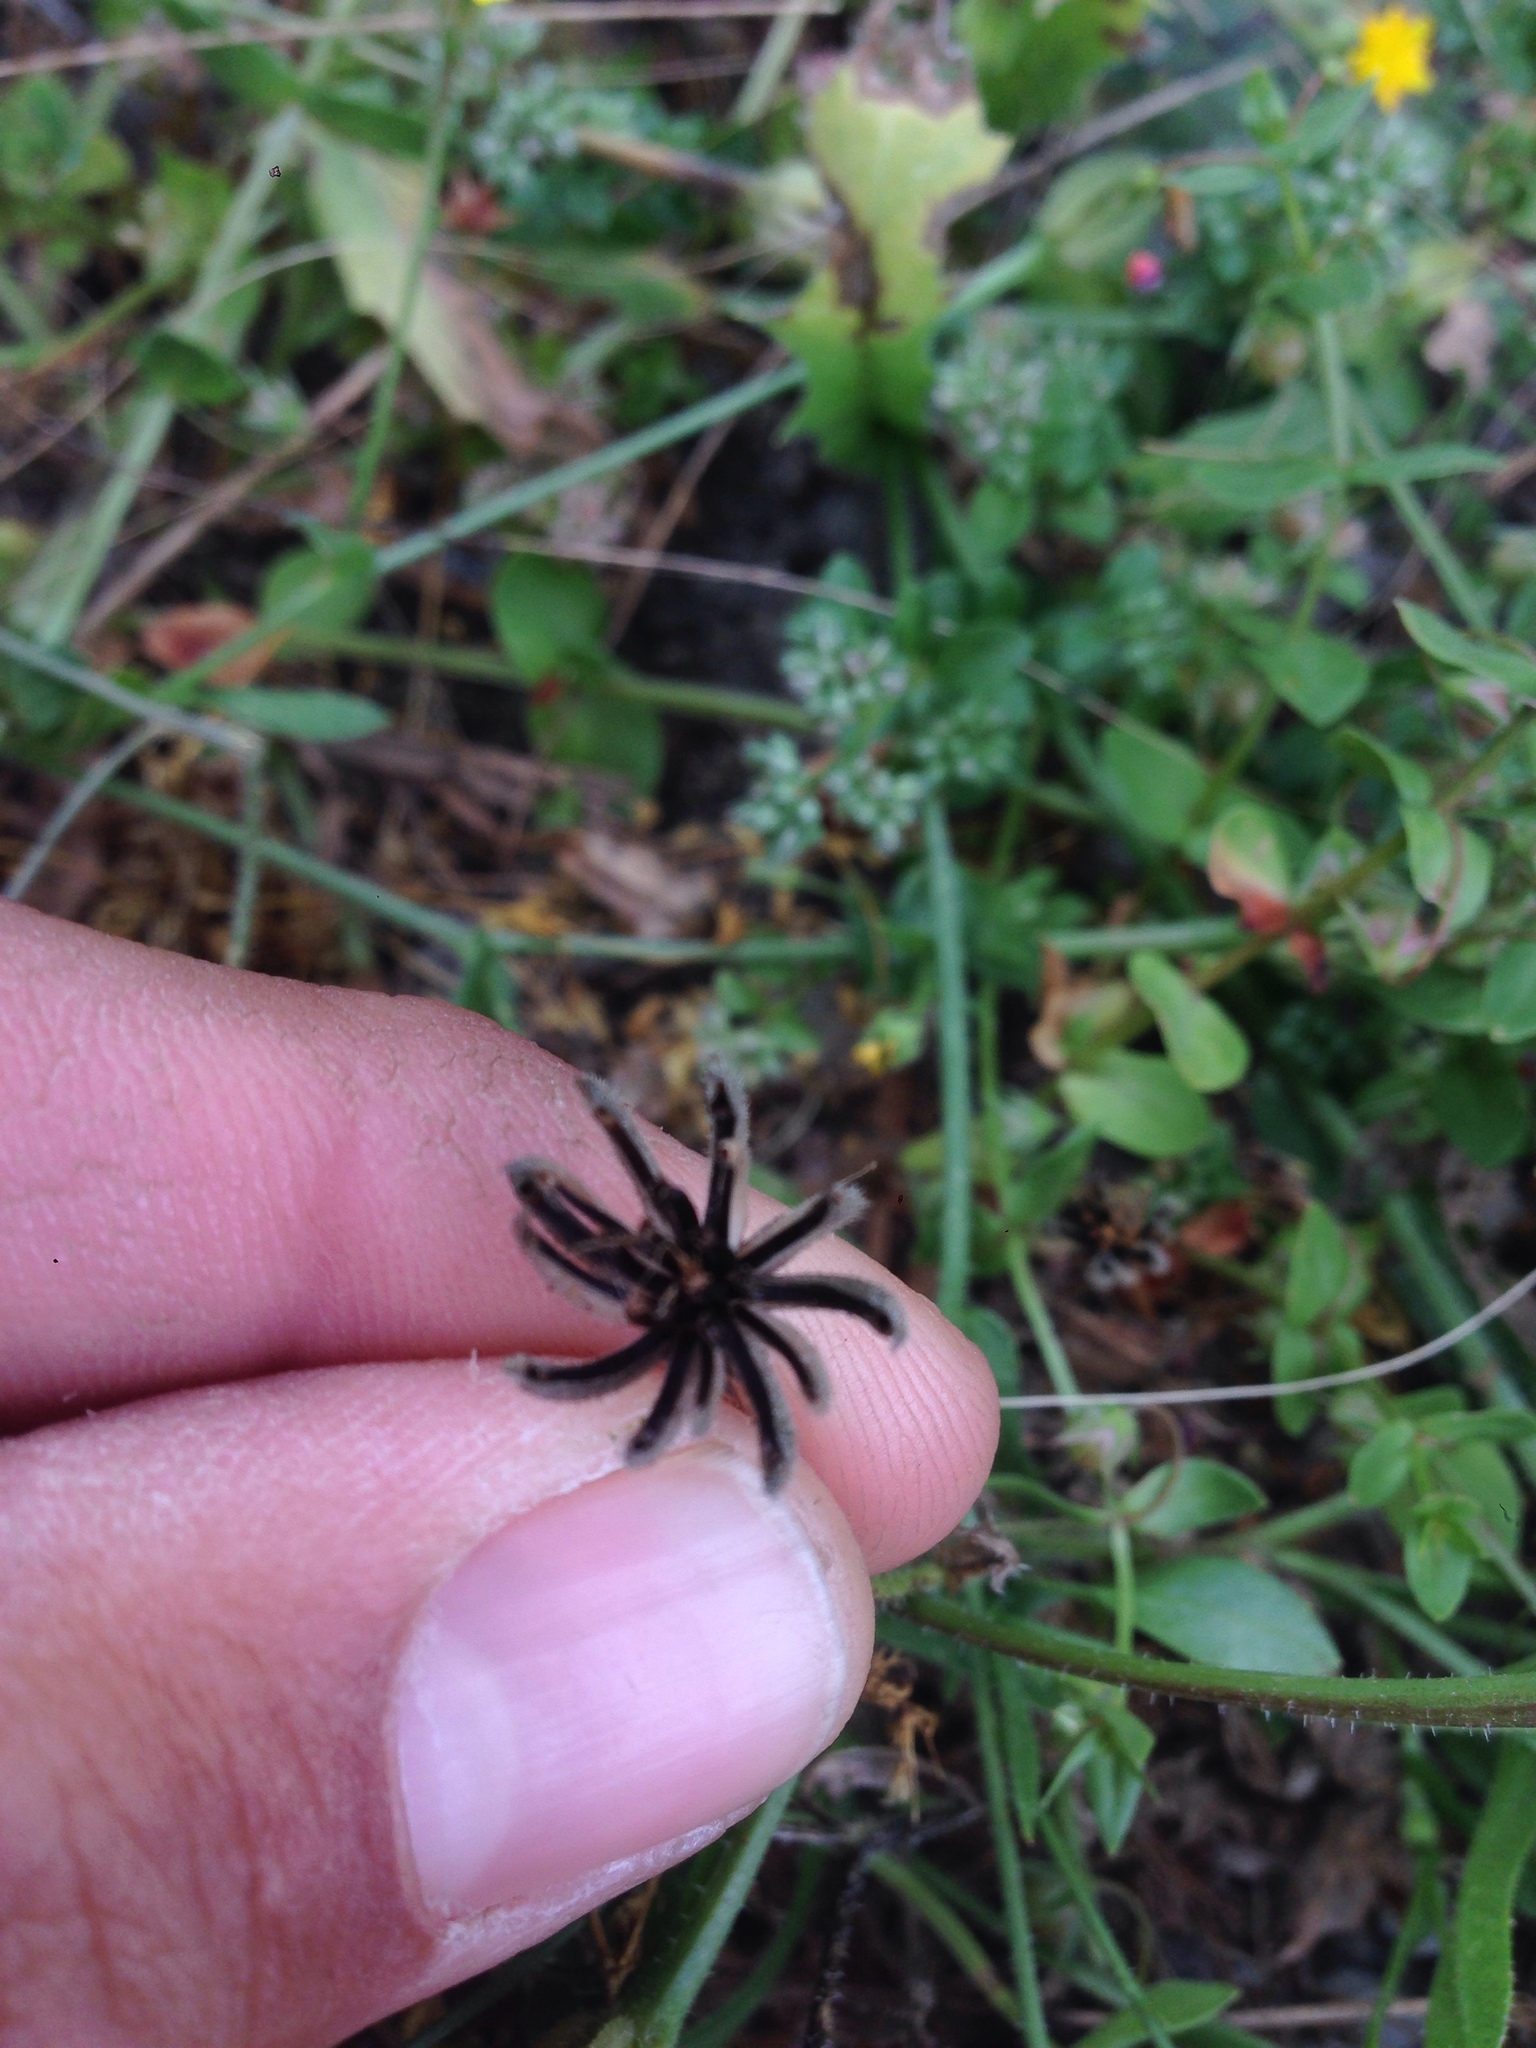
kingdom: Plantae
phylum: Tracheophyta
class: Magnoliopsida
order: Asterales
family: Asteraceae
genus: Hedypnois
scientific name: Hedypnois rhagadioloides
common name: Cretan weed
